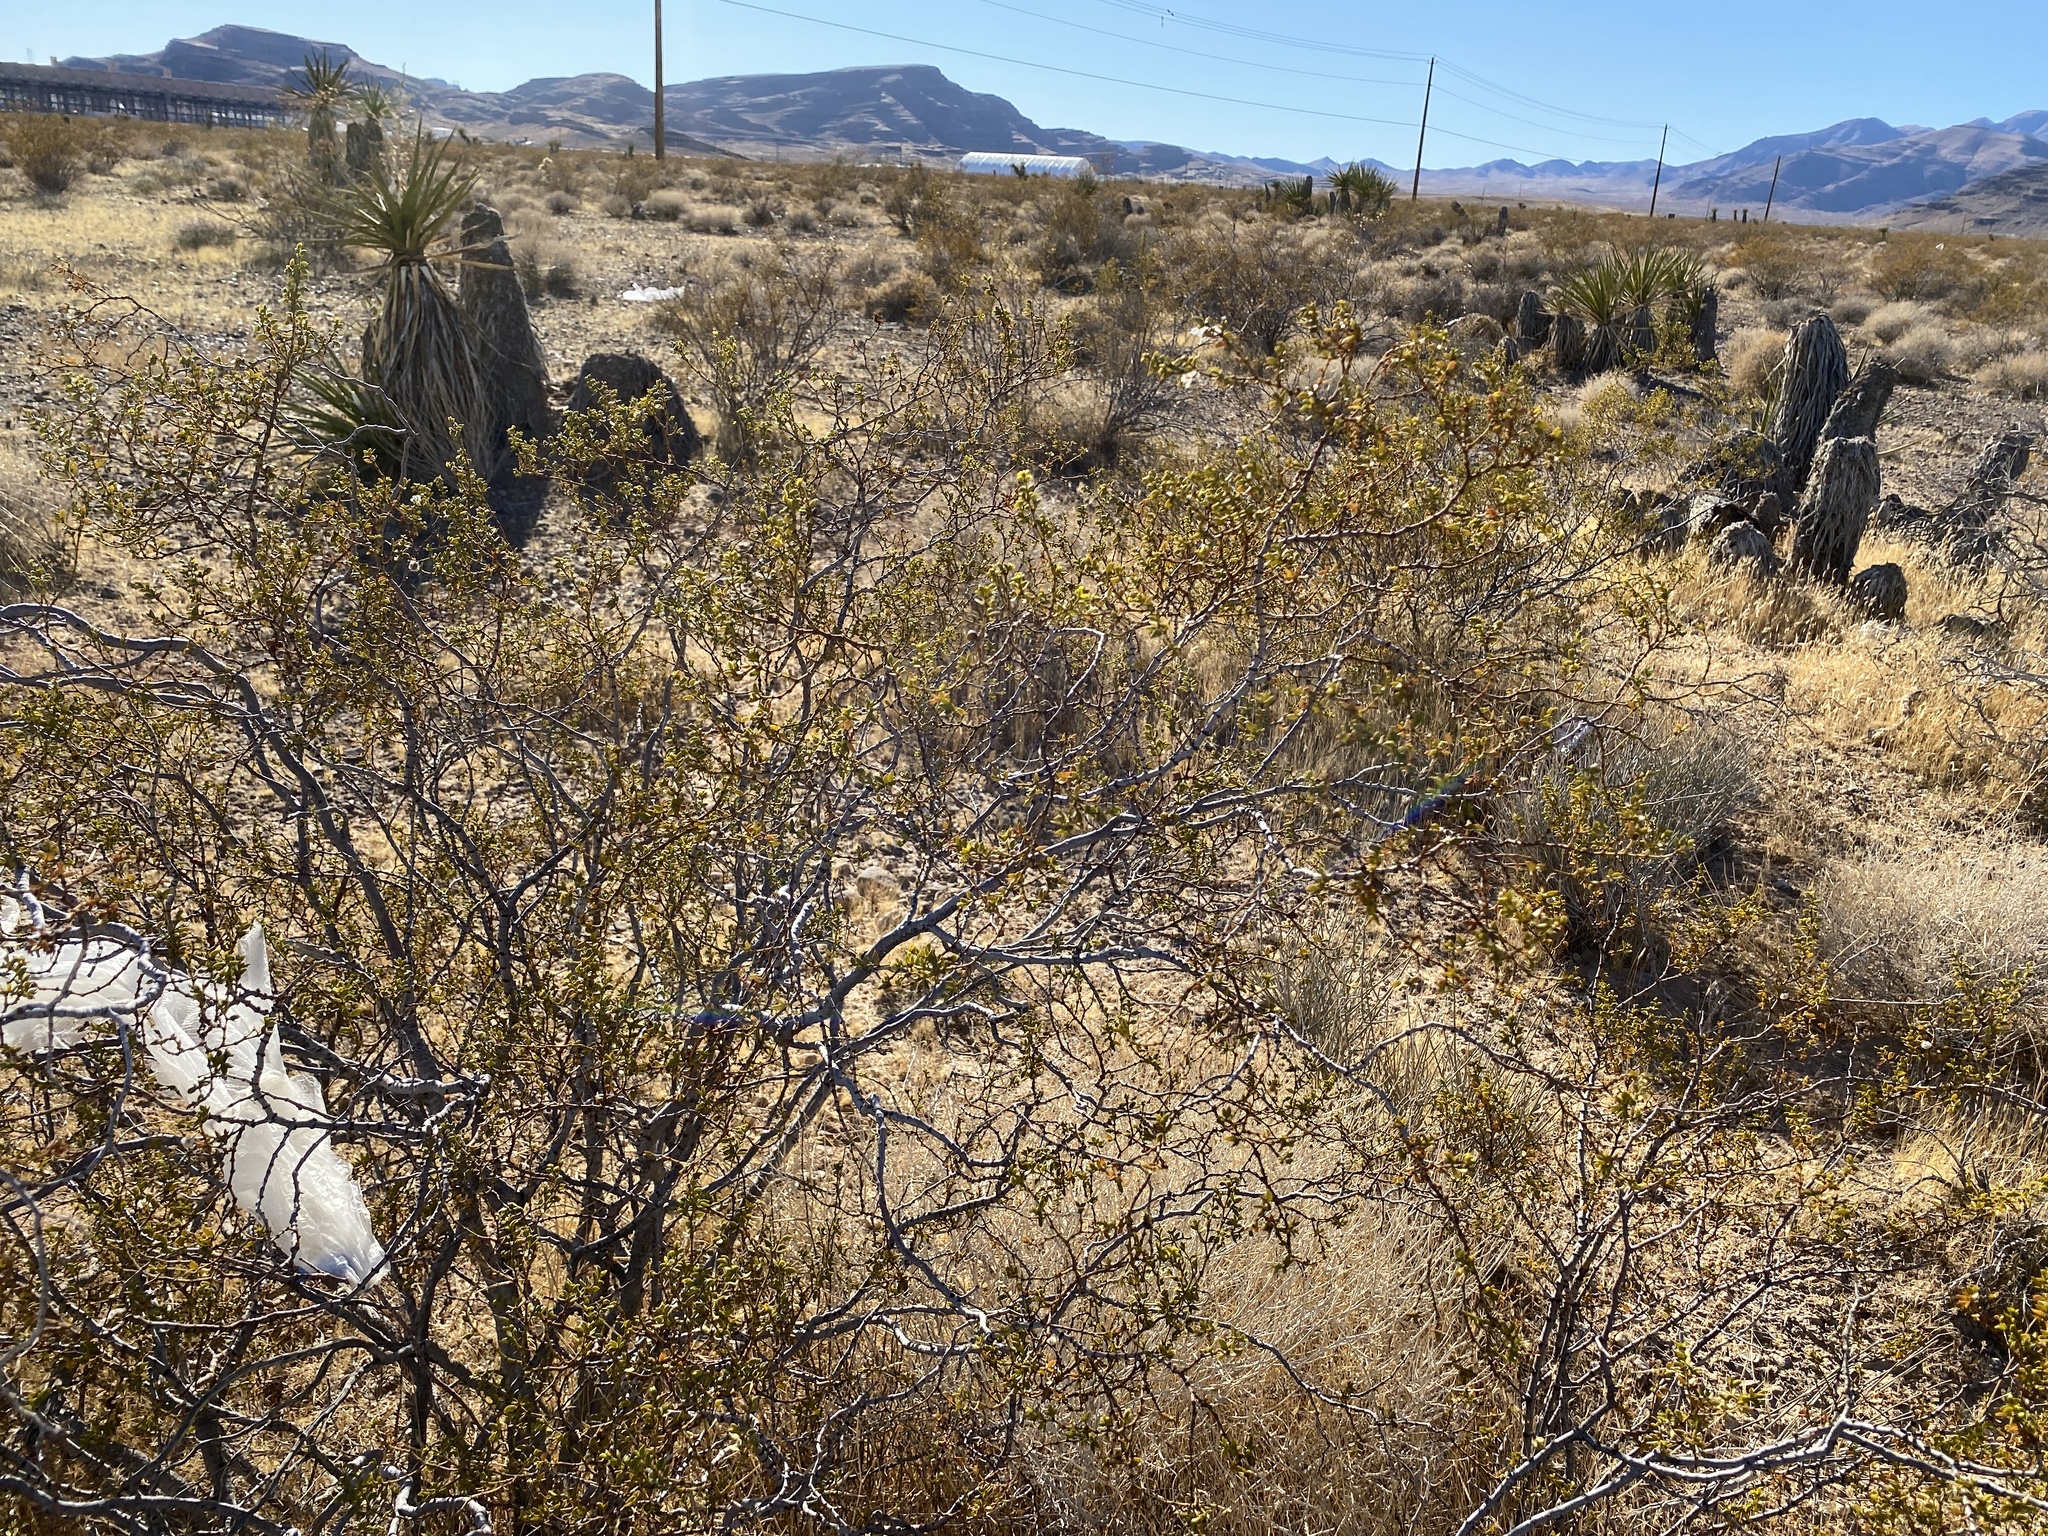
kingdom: Plantae
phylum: Tracheophyta
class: Magnoliopsida
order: Zygophyllales
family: Zygophyllaceae
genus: Larrea
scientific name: Larrea tridentata
